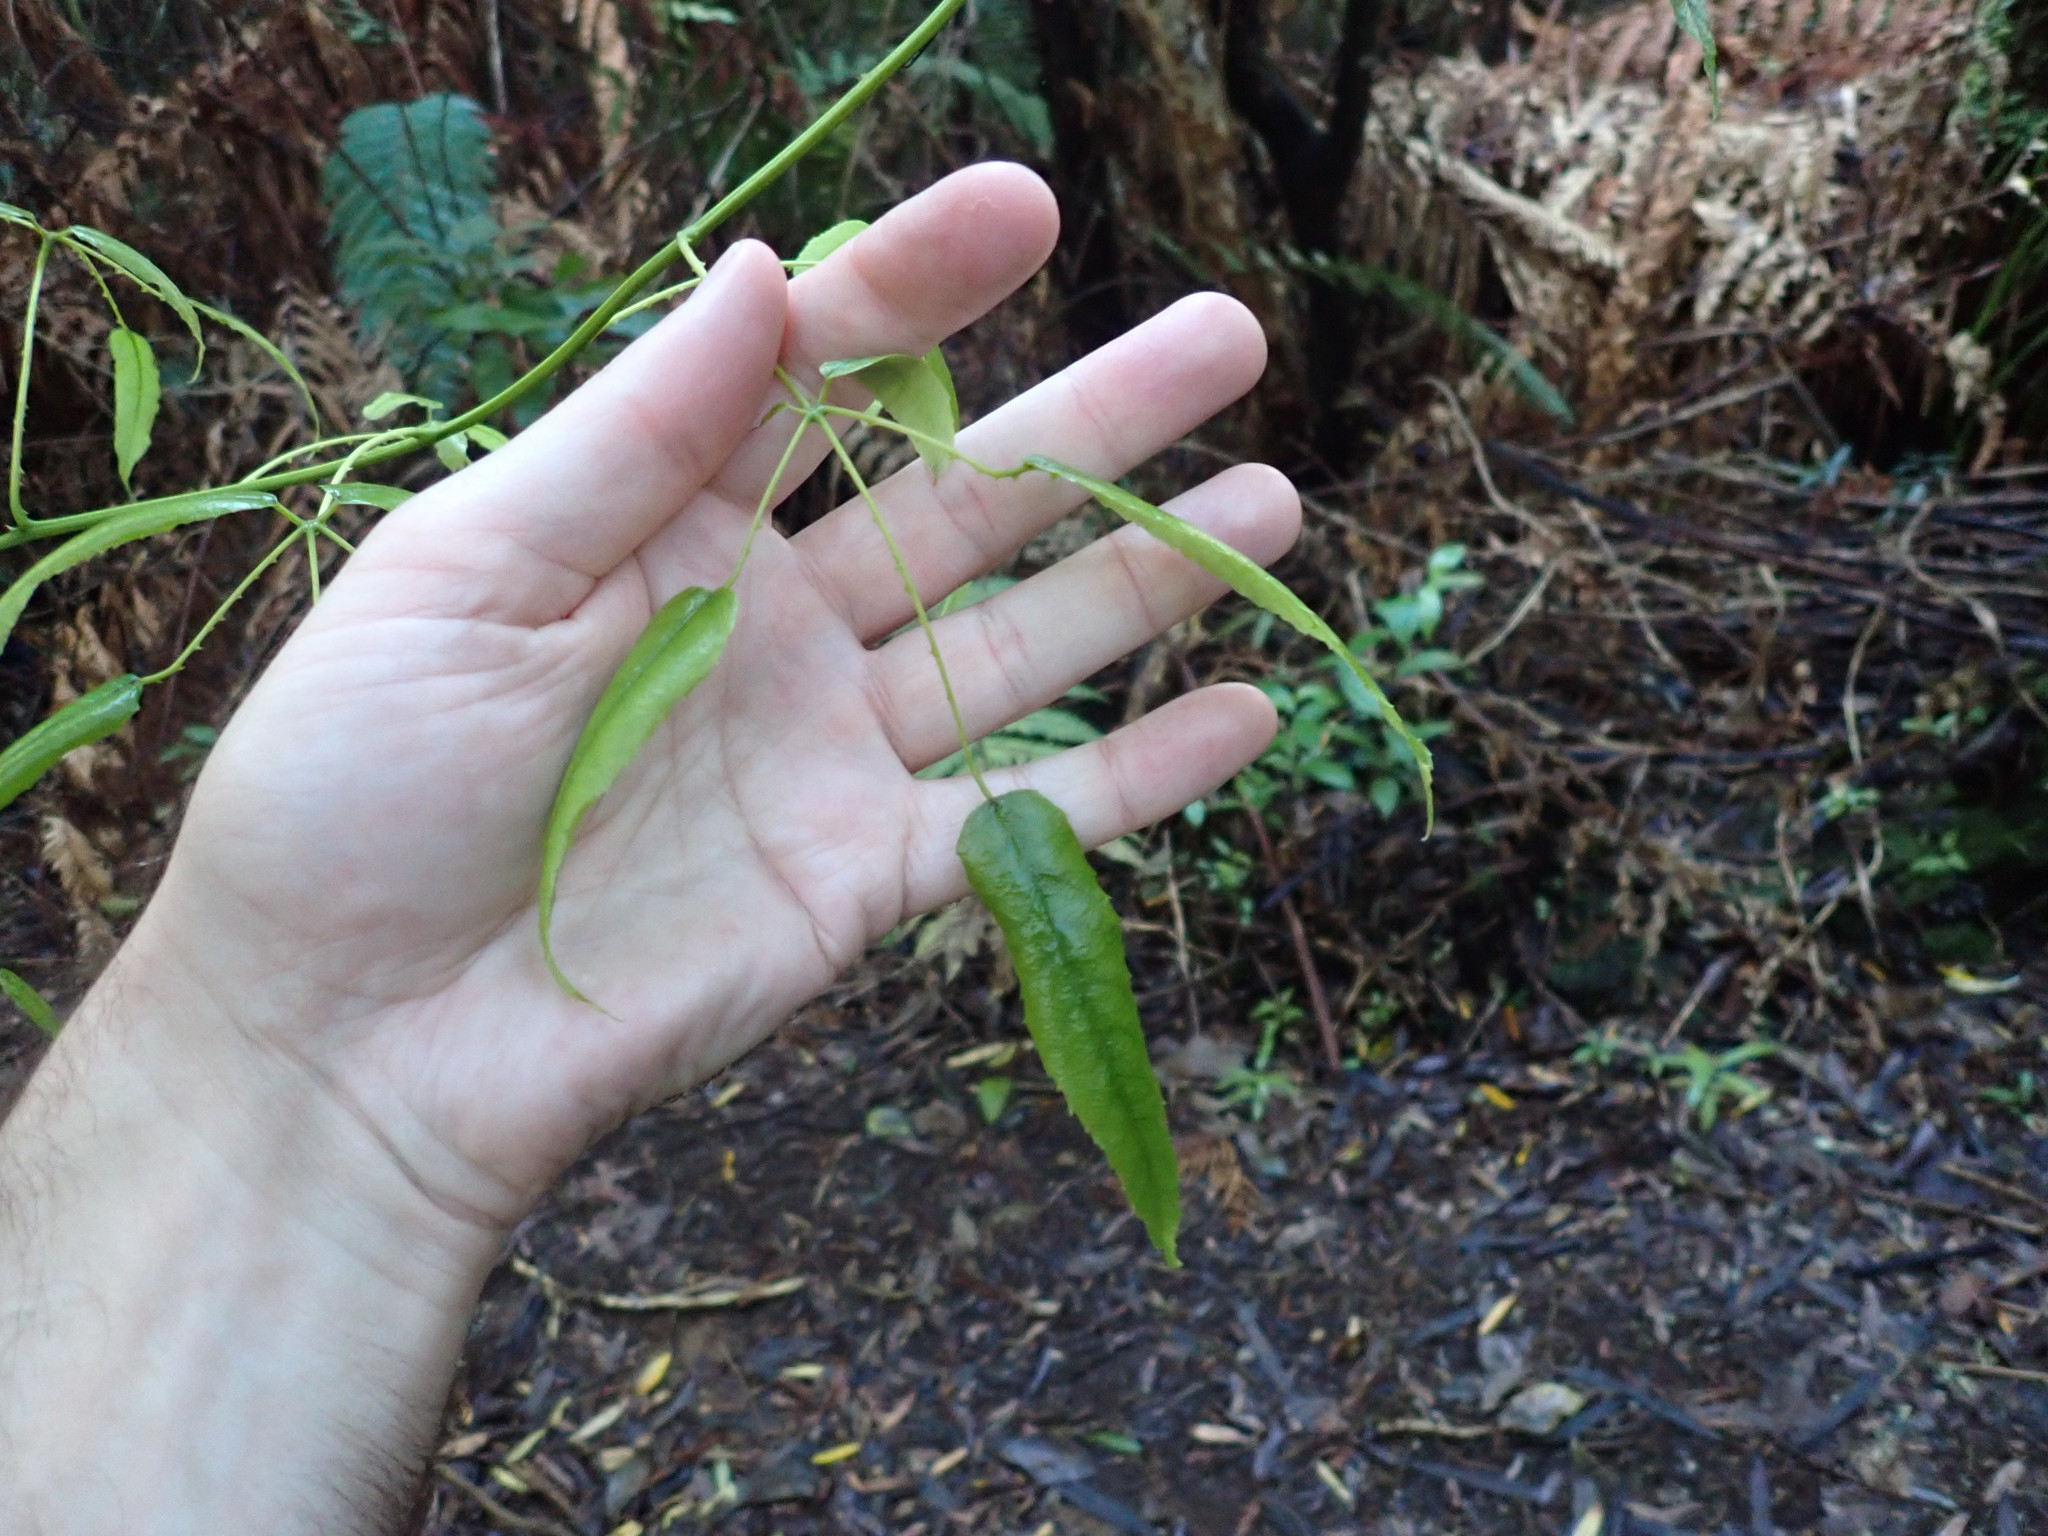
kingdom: Plantae
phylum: Tracheophyta
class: Magnoliopsida
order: Rosales
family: Rosaceae
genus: Rubus
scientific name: Rubus cissoides
